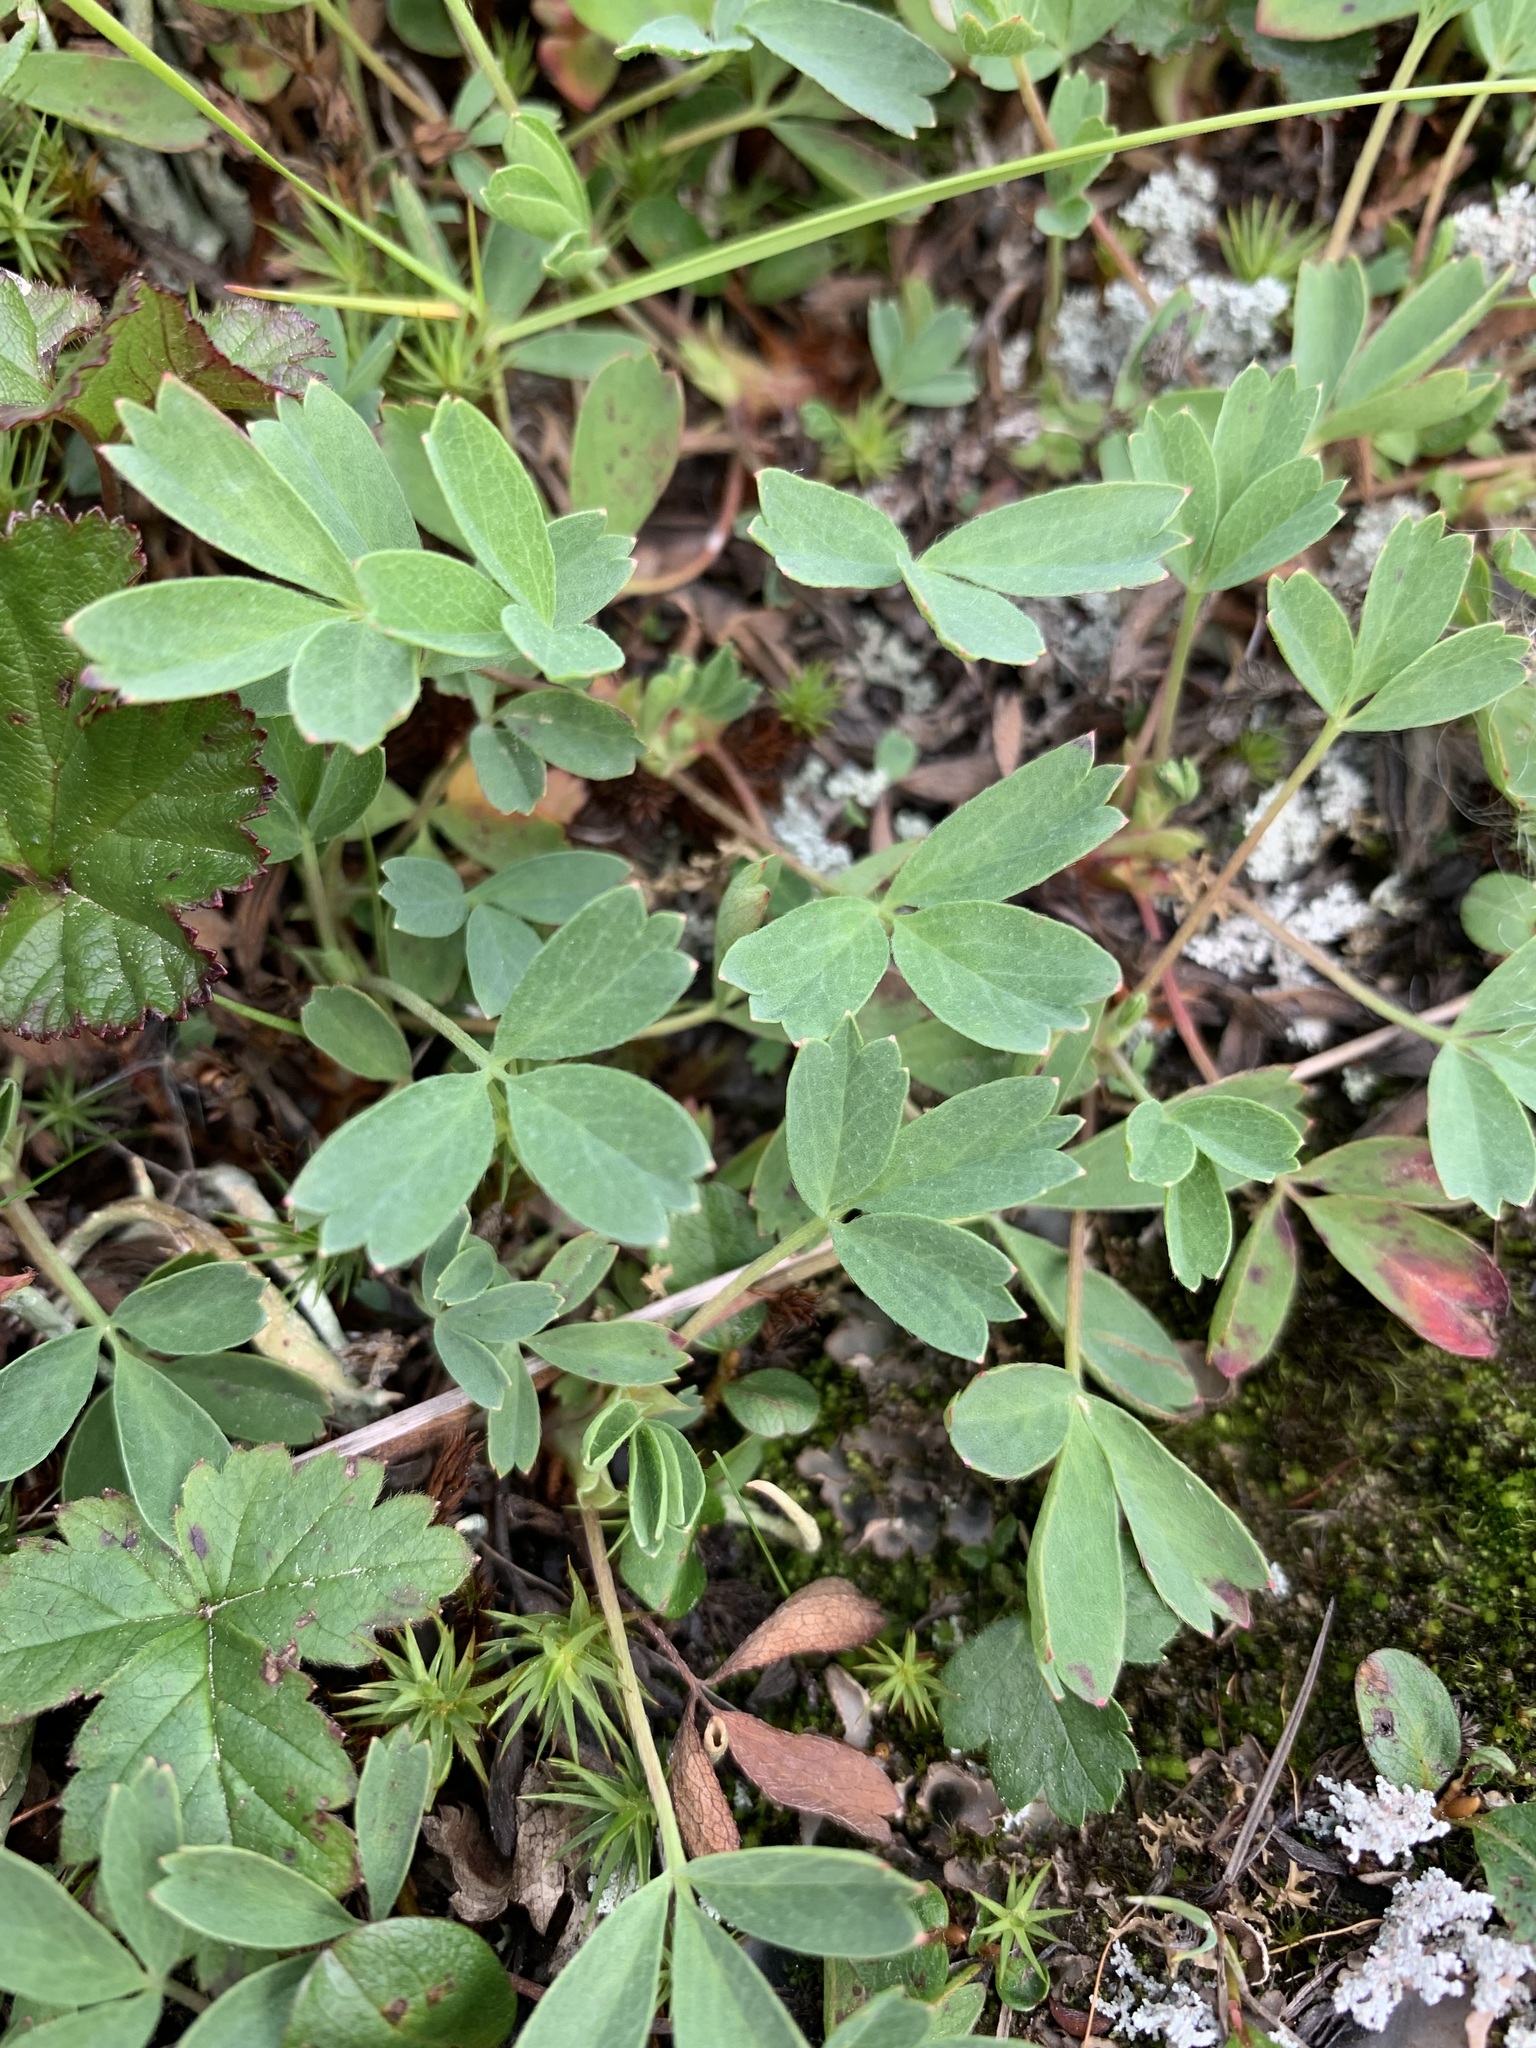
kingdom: Plantae
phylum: Tracheophyta
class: Magnoliopsida
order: Rosales
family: Rosaceae
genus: Sibbaldia
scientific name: Sibbaldia procumbens
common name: Creeping sibbaldia
